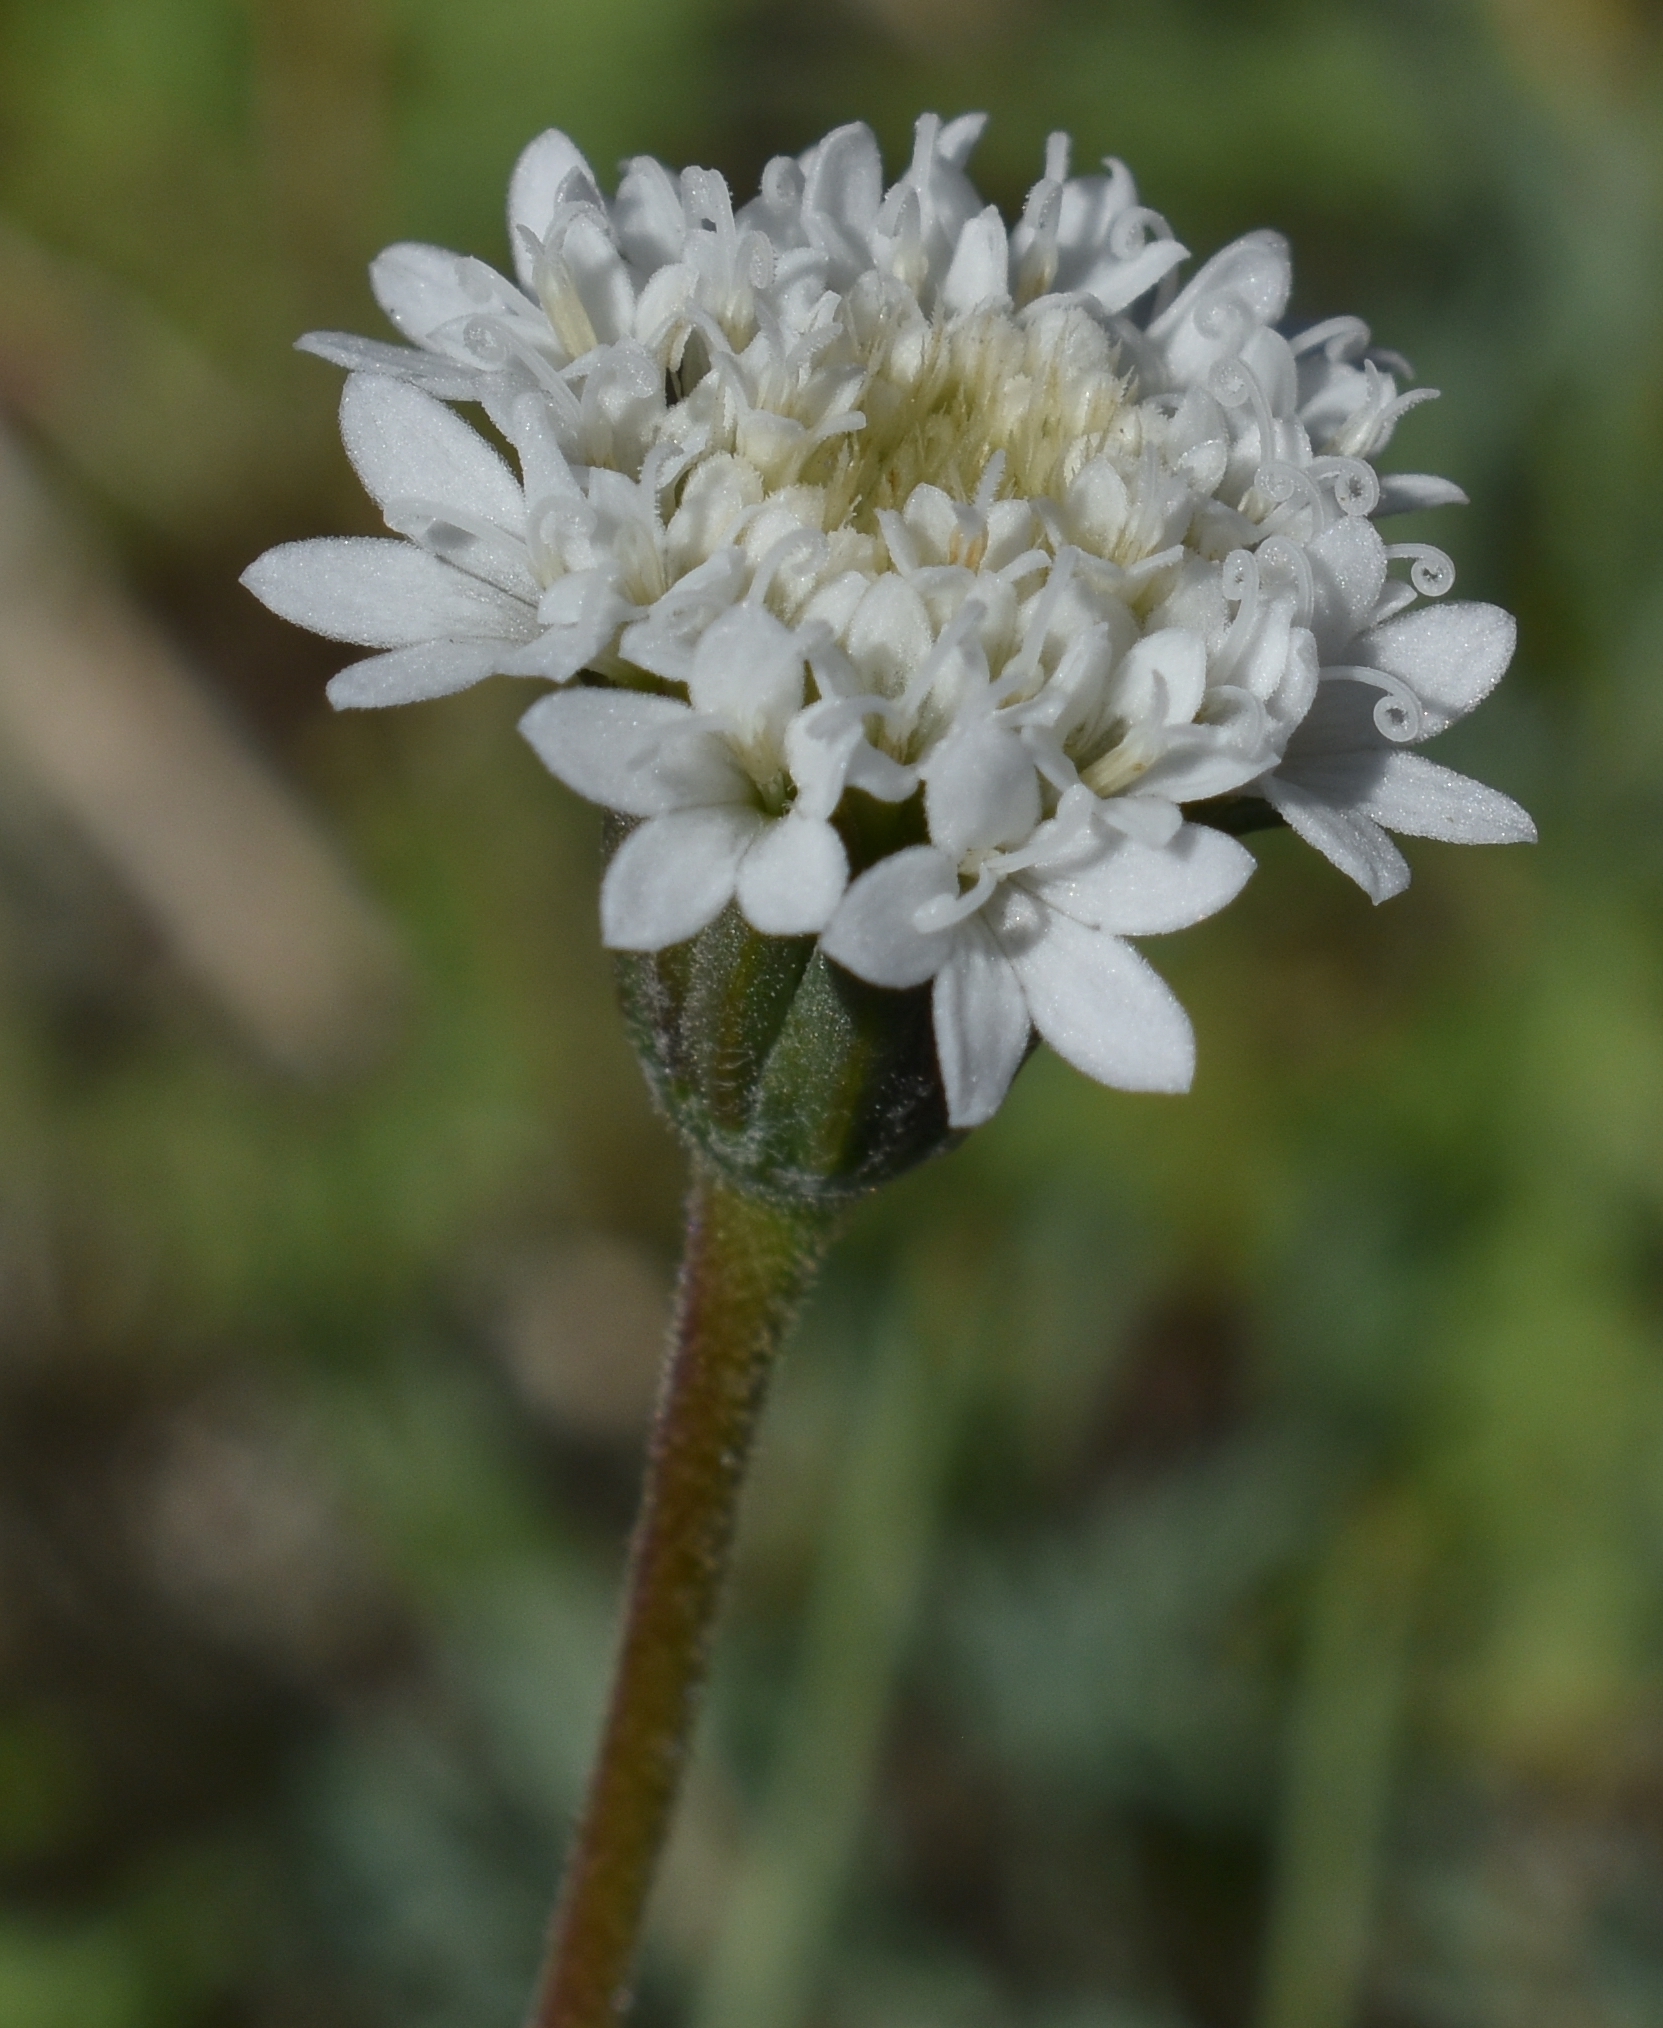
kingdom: Plantae
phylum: Tracheophyta
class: Magnoliopsida
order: Asterales
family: Asteraceae
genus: Chaenactis
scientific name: Chaenactis fremontii
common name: Fremont pincushion
